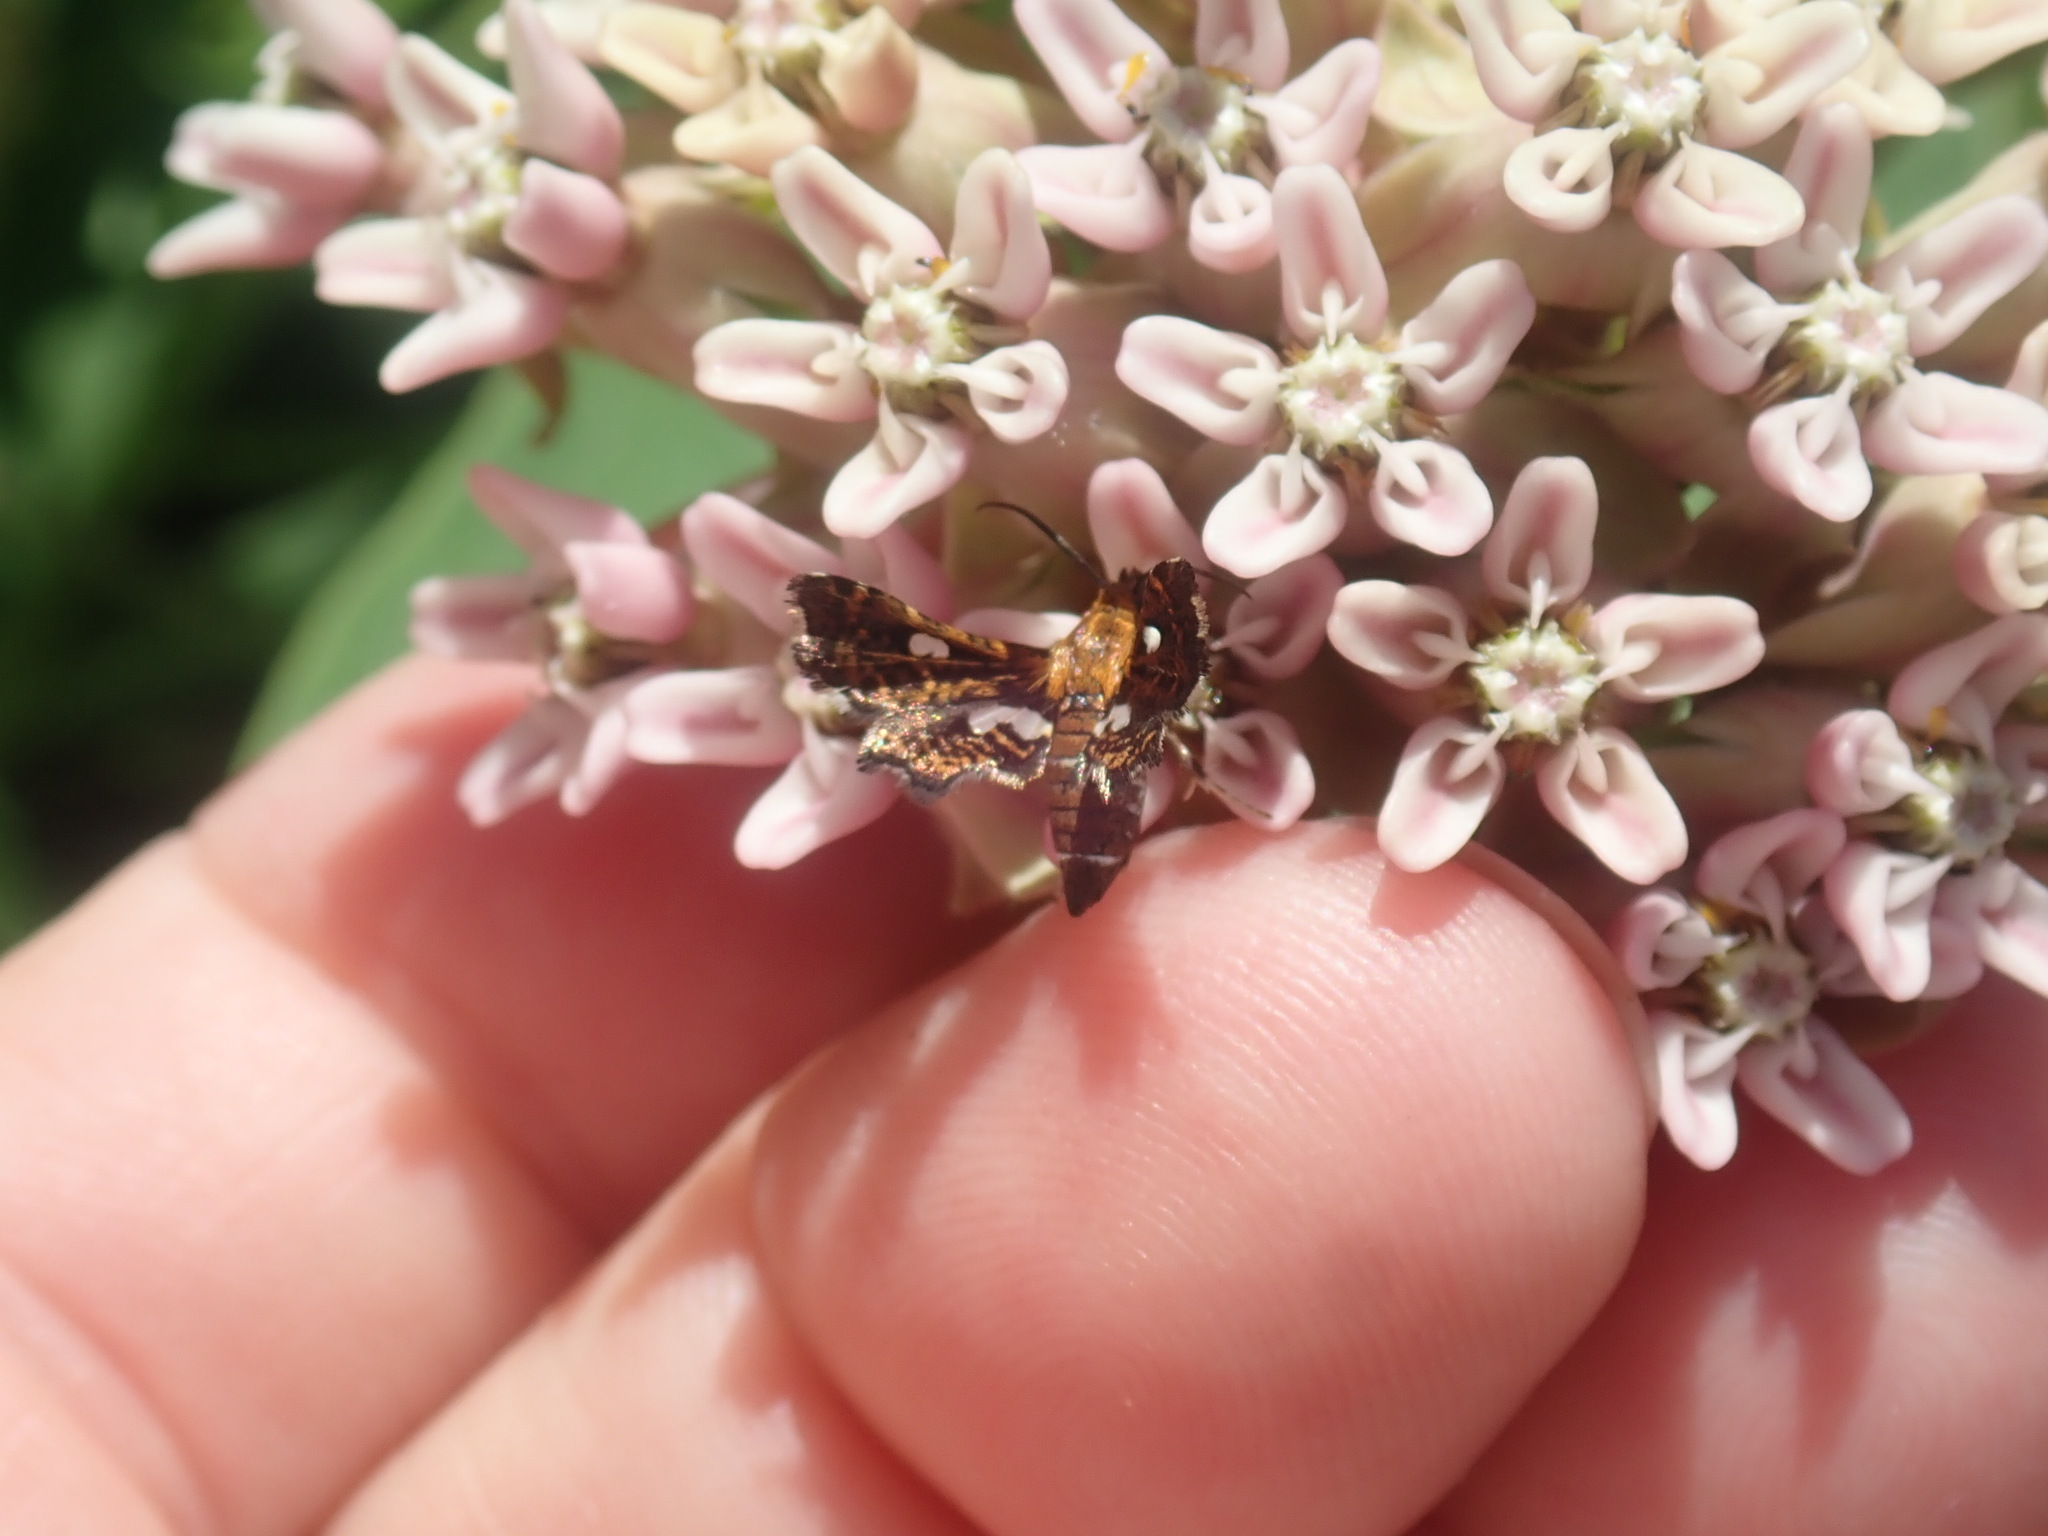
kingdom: Animalia
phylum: Arthropoda
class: Insecta
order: Lepidoptera
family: Thyrididae
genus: Thyris
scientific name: Thyris maculata
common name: Spotted thyris moth
